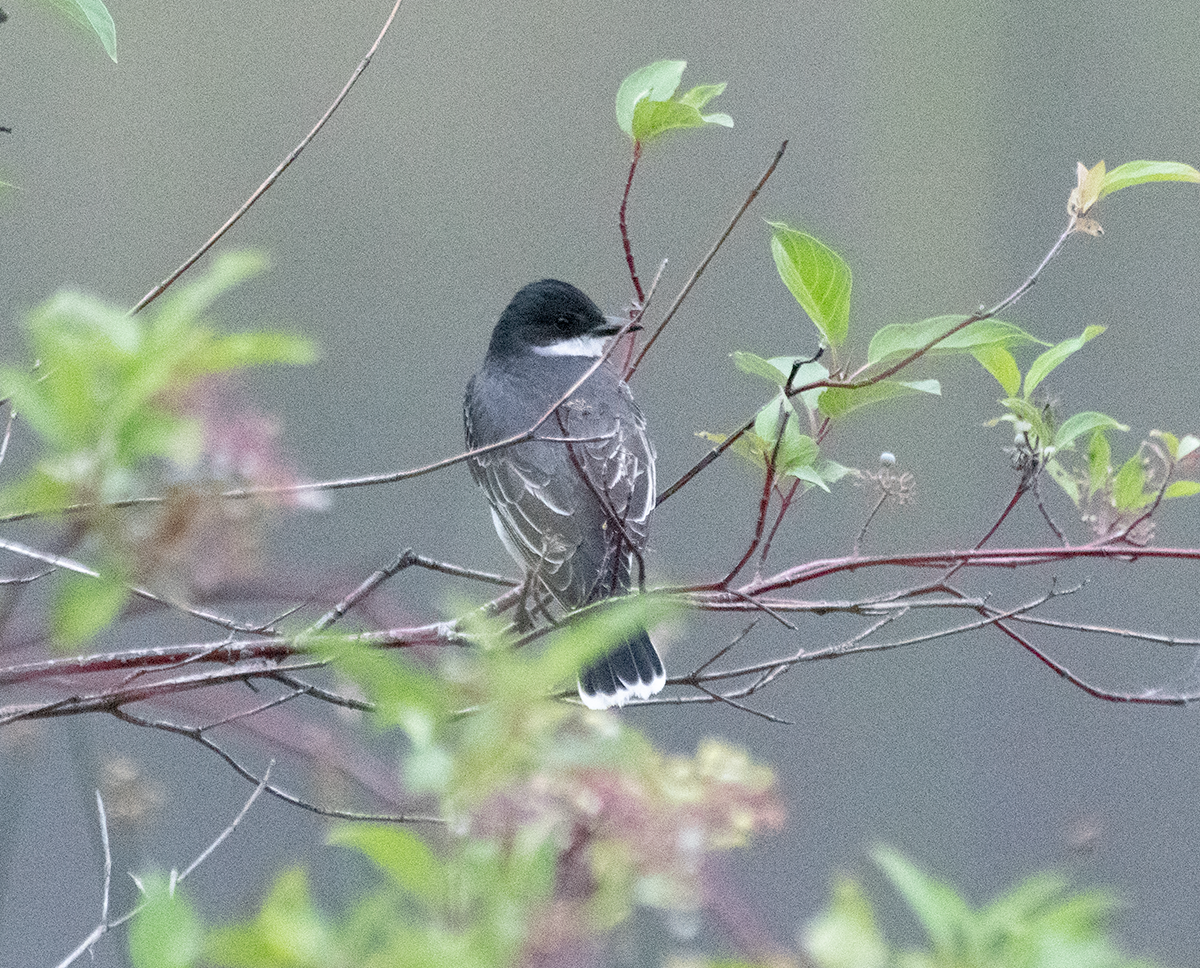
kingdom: Animalia
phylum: Chordata
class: Aves
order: Passeriformes
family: Tyrannidae
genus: Tyrannus
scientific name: Tyrannus tyrannus
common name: Eastern kingbird
